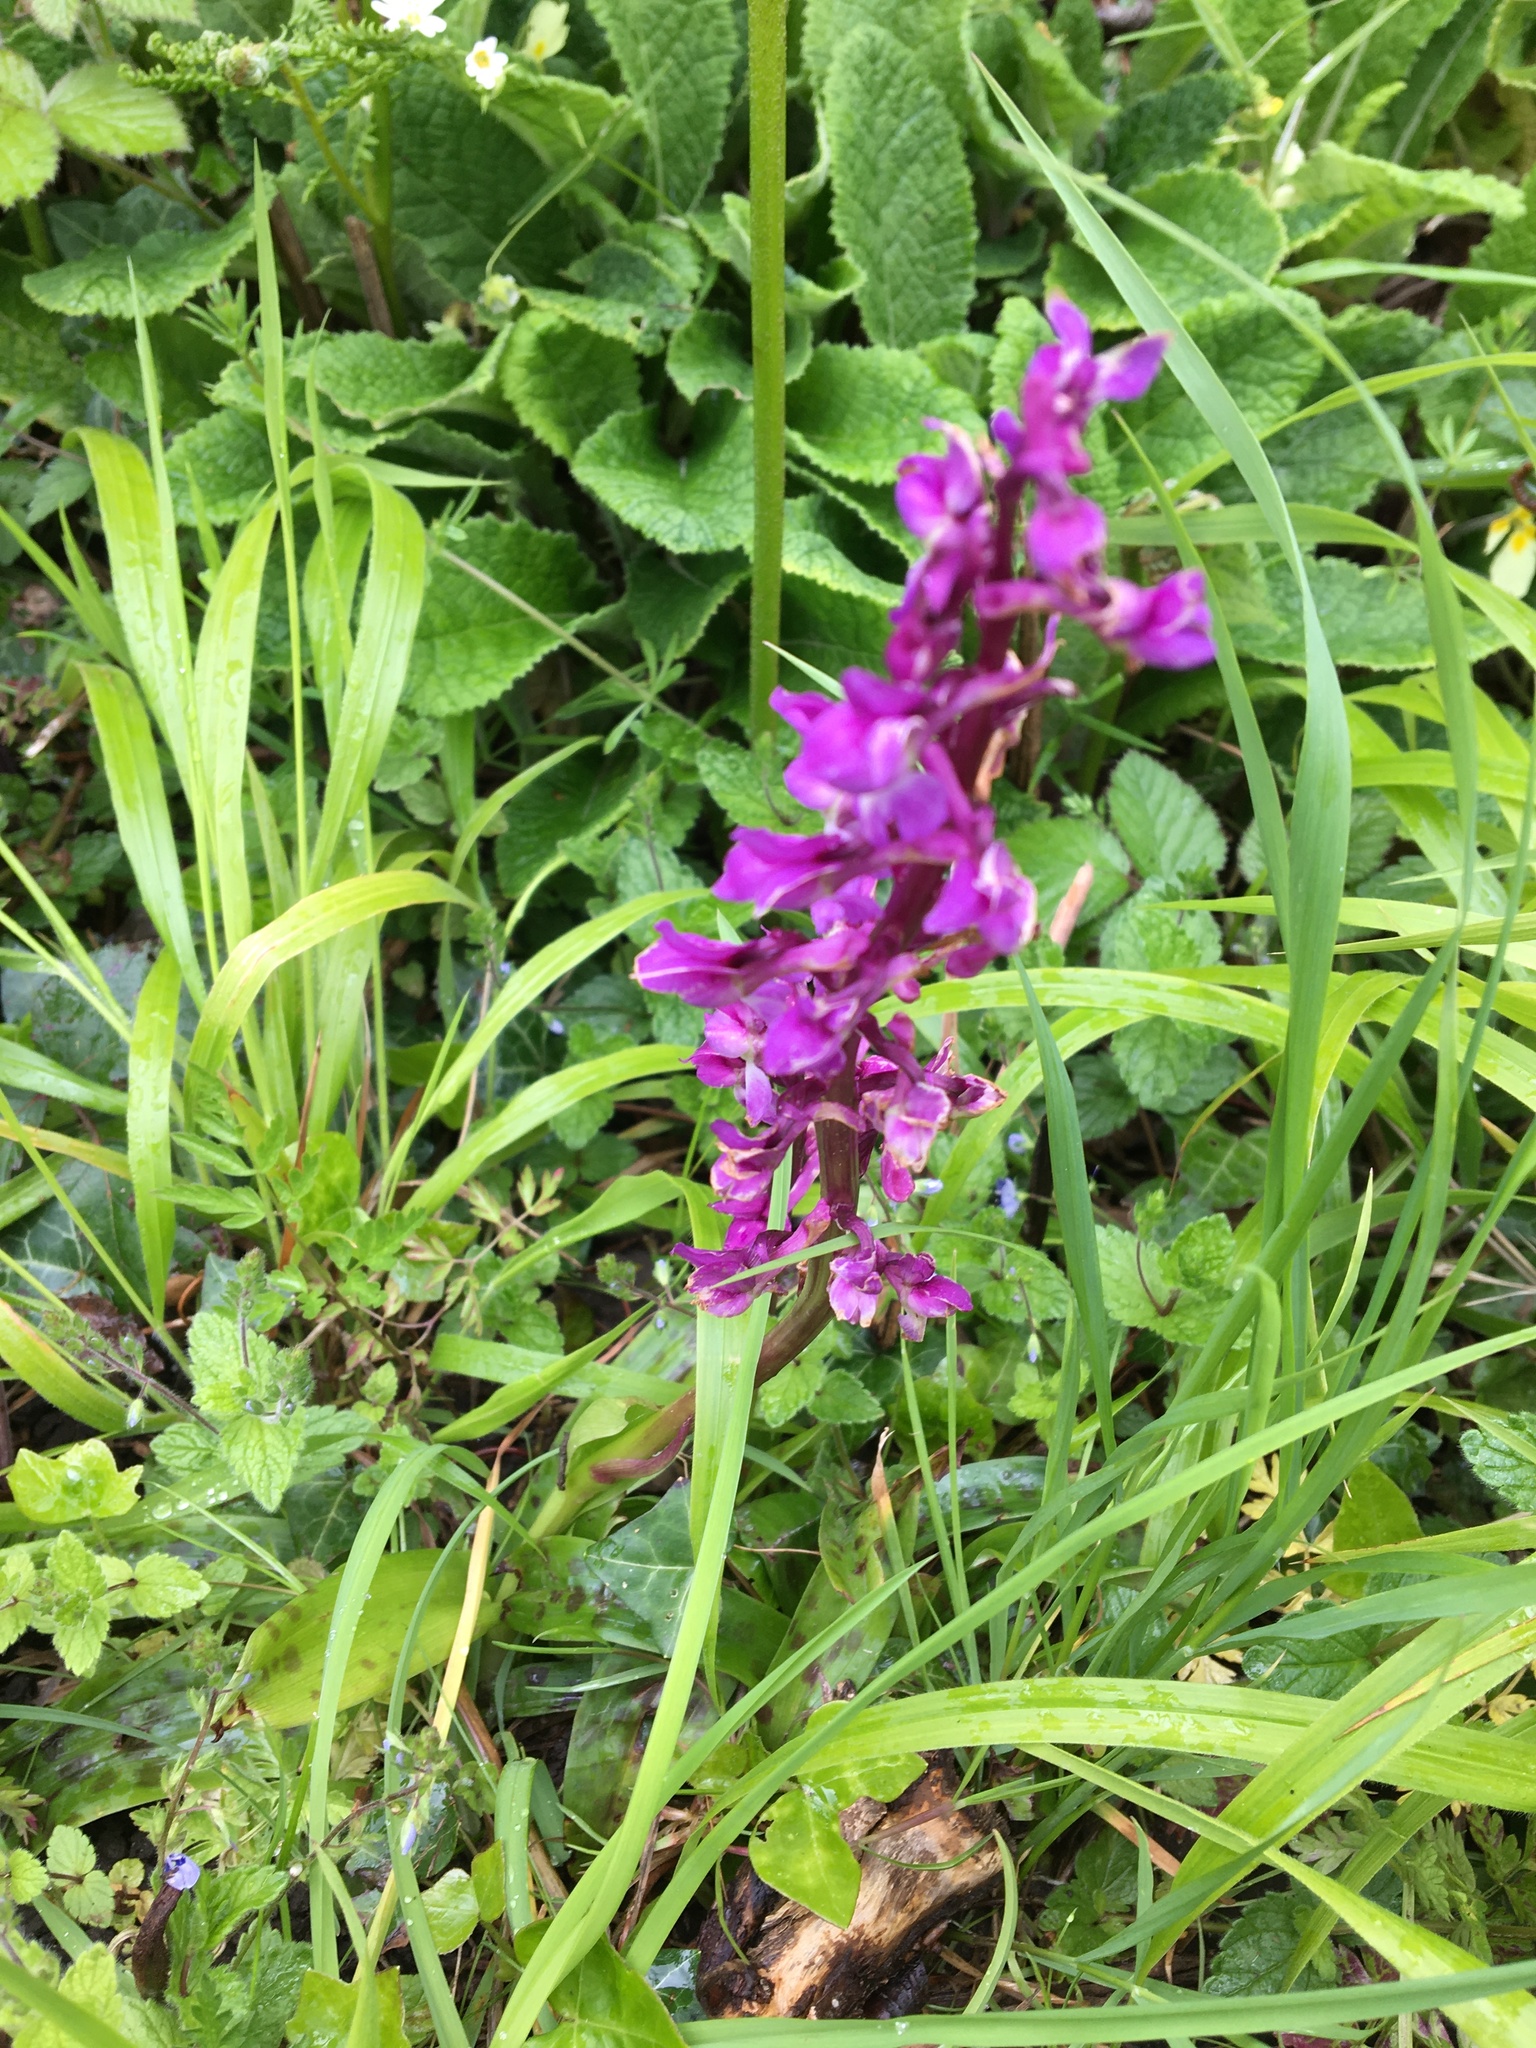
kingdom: Plantae
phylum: Tracheophyta
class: Liliopsida
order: Asparagales
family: Orchidaceae
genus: Orchis
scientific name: Orchis mascula
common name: Early-purple orchid
